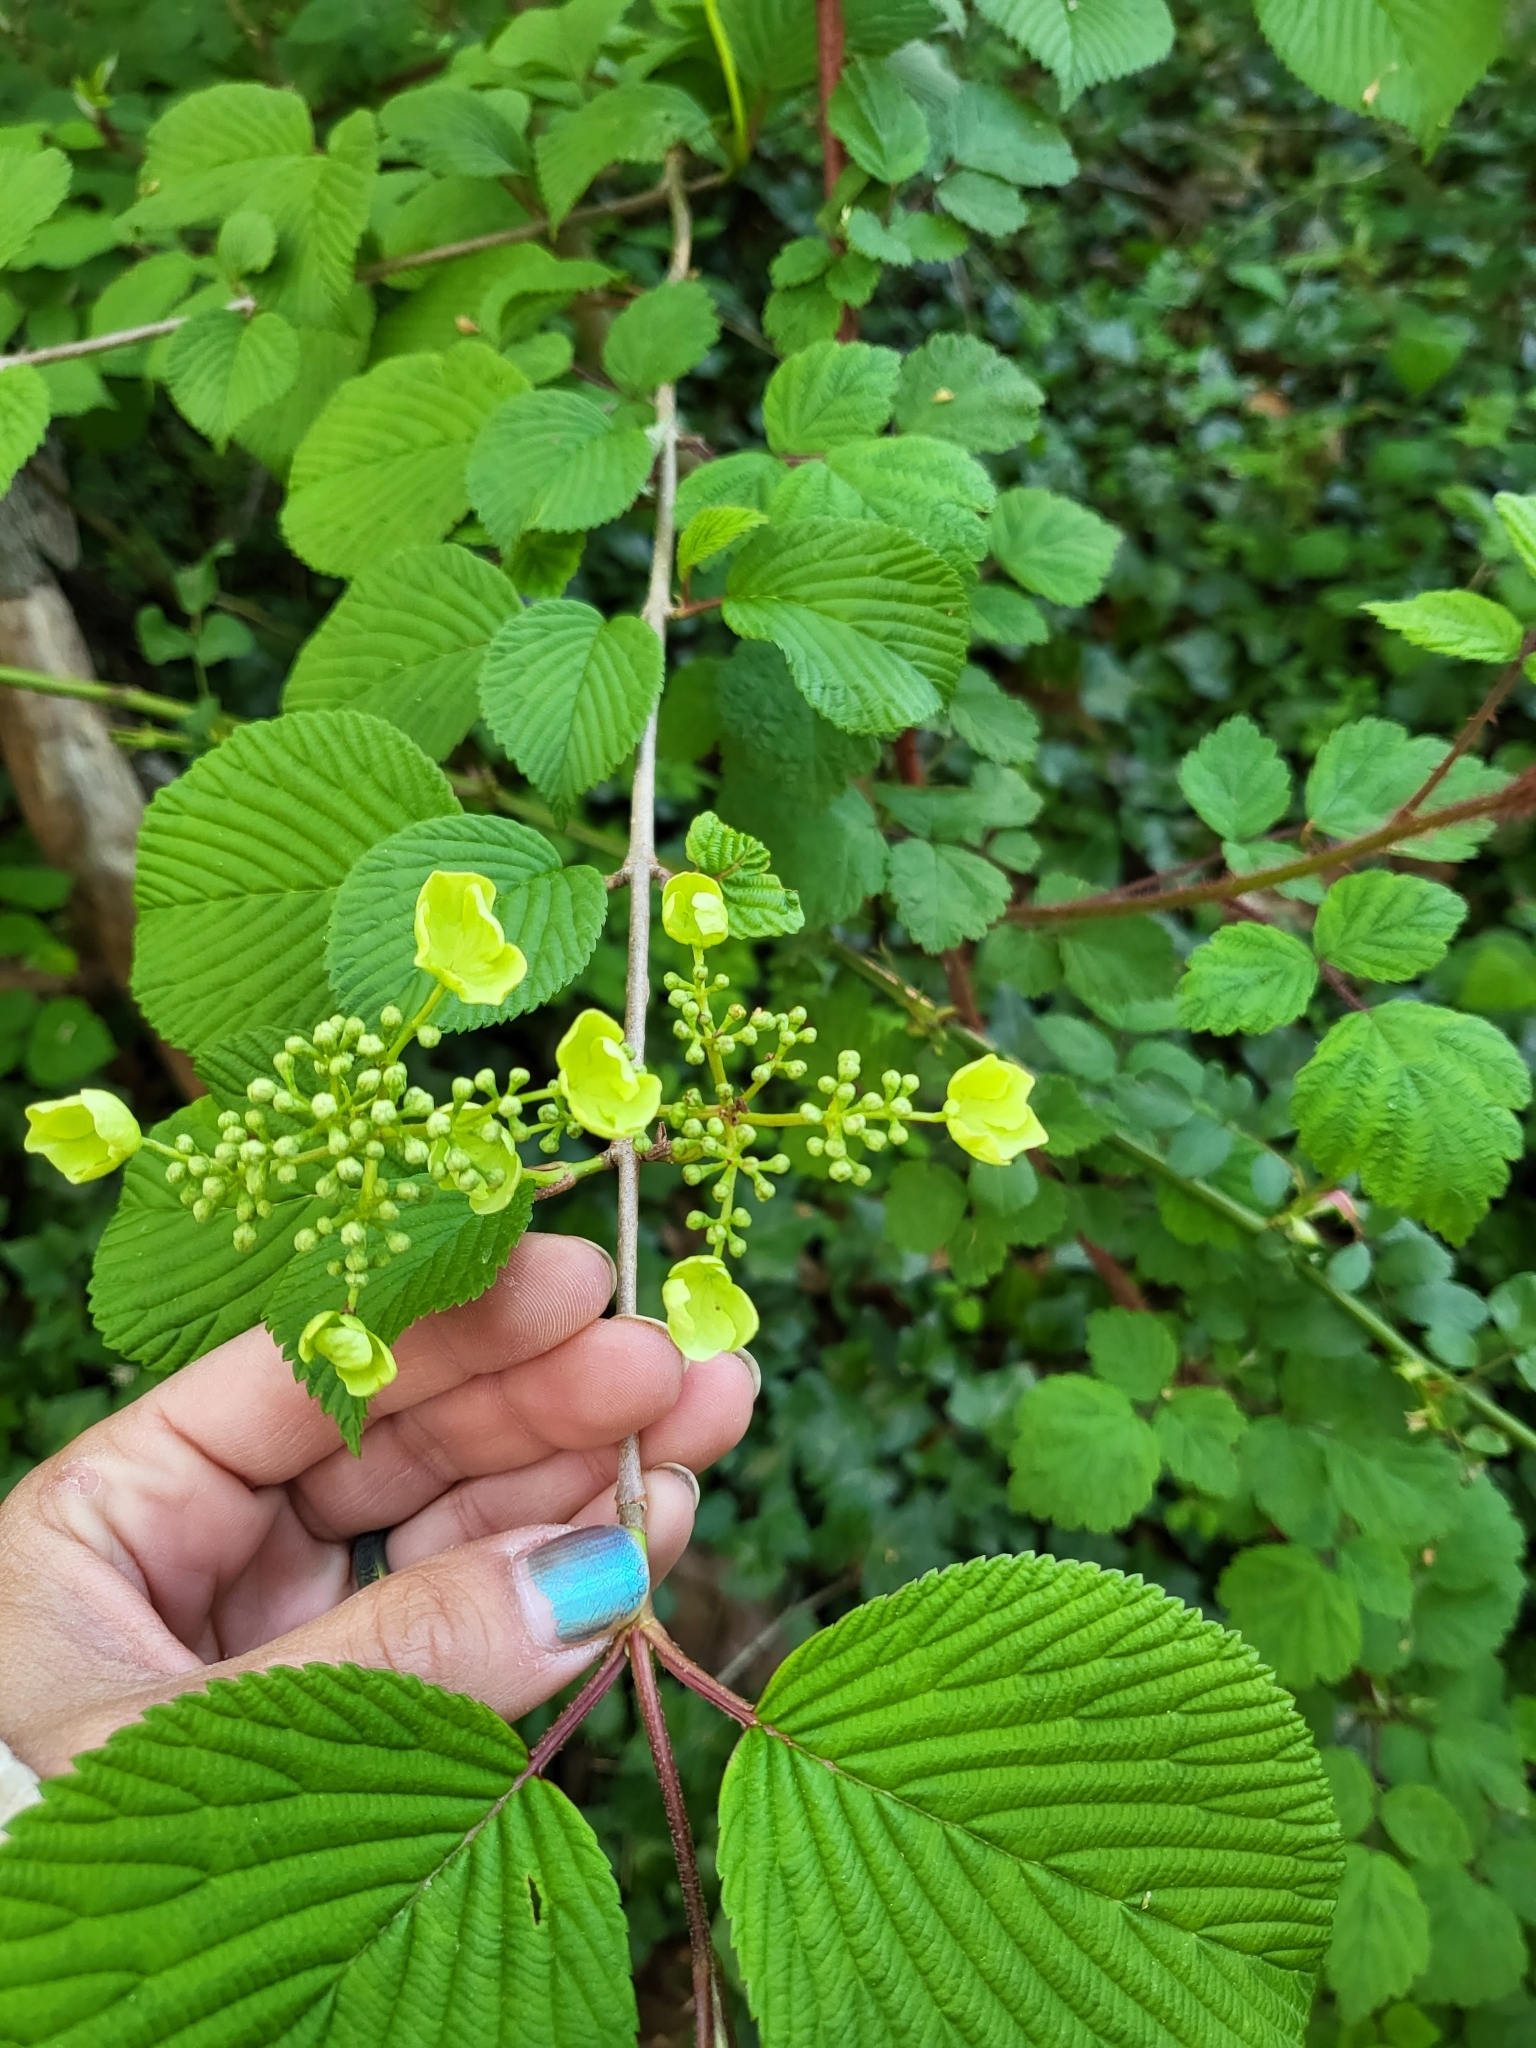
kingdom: Plantae
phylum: Tracheophyta
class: Magnoliopsida
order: Dipsacales
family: Viburnaceae
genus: Viburnum
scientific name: Viburnum plicatum
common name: Japanese snowball
